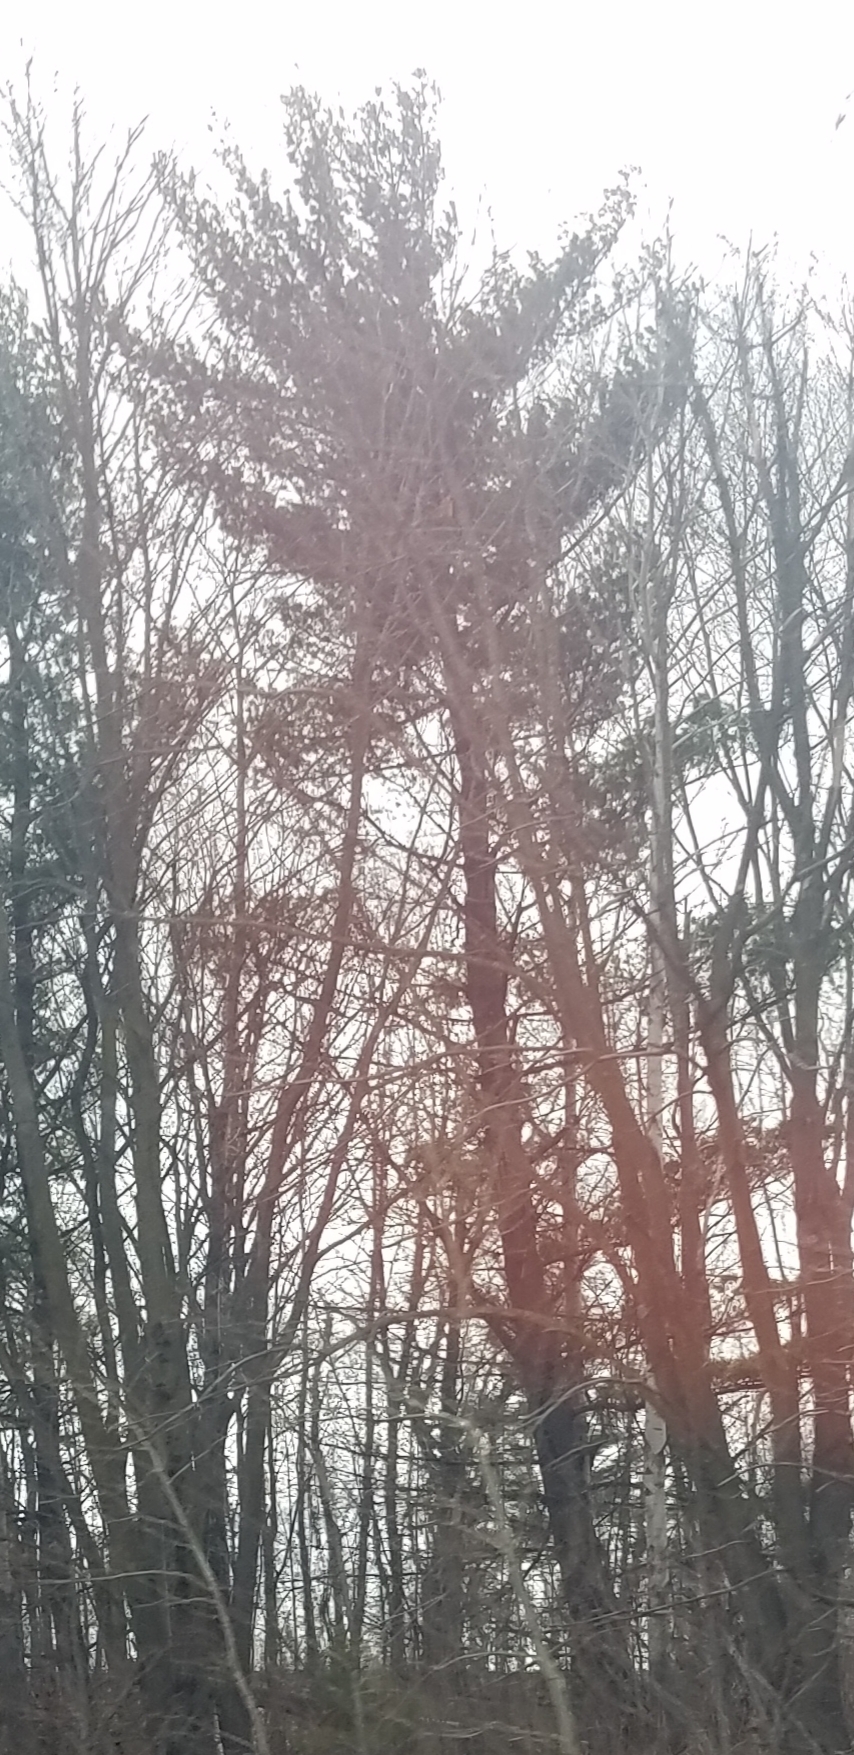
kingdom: Plantae
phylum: Tracheophyta
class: Pinopsida
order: Pinales
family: Pinaceae
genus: Pinus
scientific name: Pinus strobus
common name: Weymouth pine
